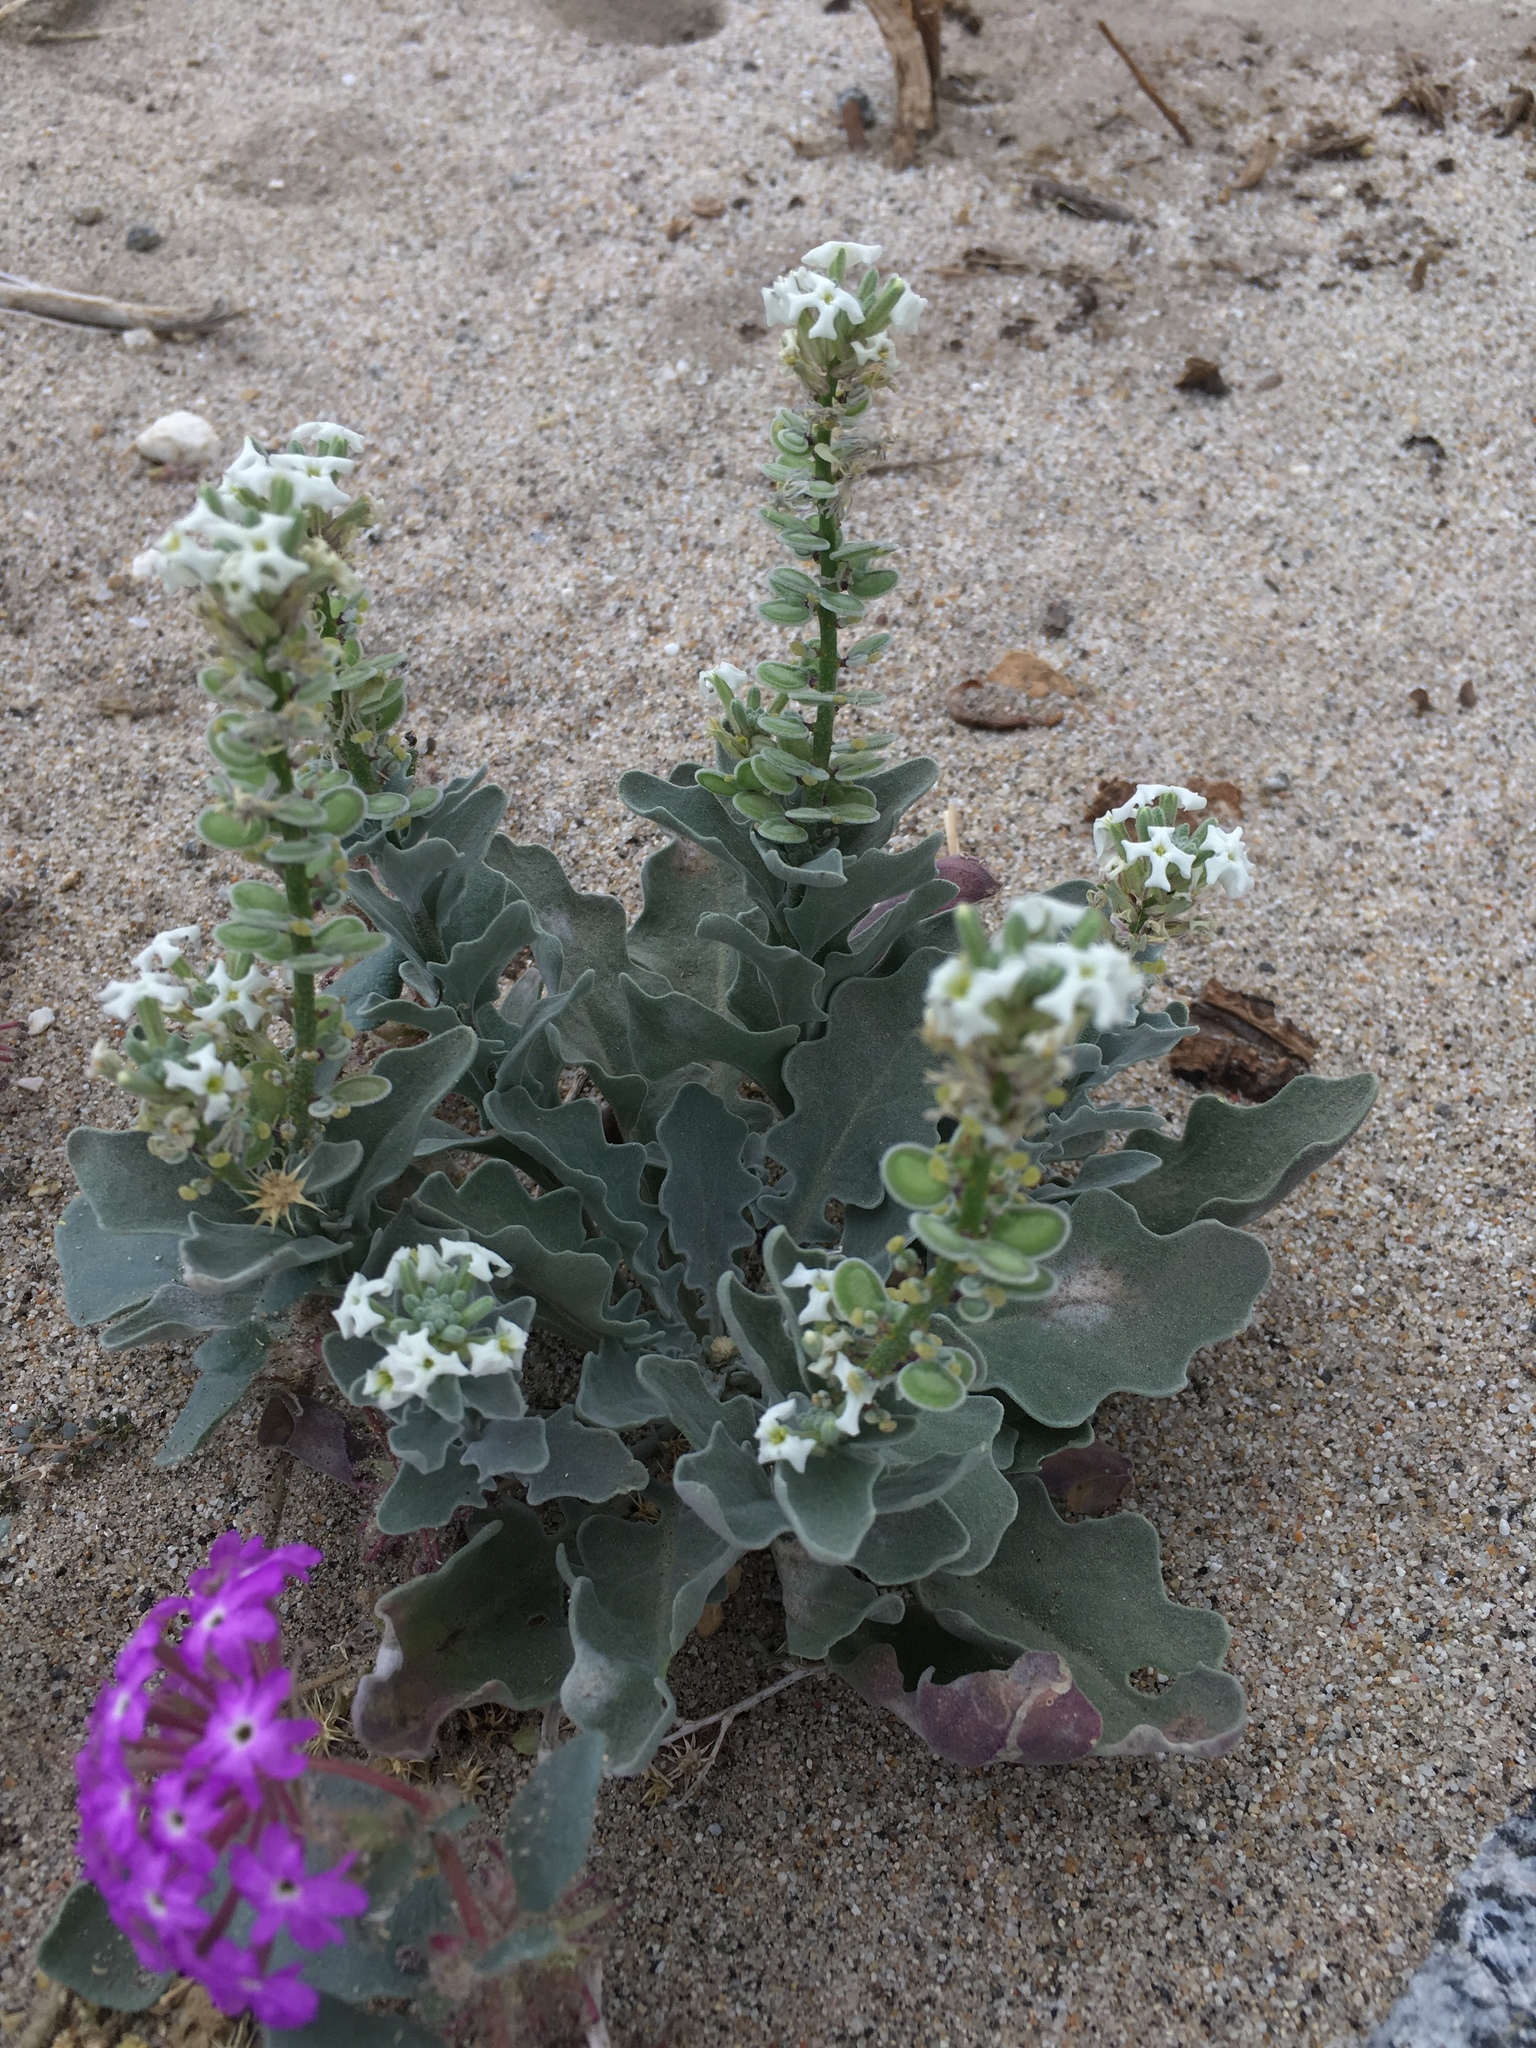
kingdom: Plantae
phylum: Tracheophyta
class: Magnoliopsida
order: Brassicales
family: Brassicaceae
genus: Dithyrea
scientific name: Dithyrea californica
